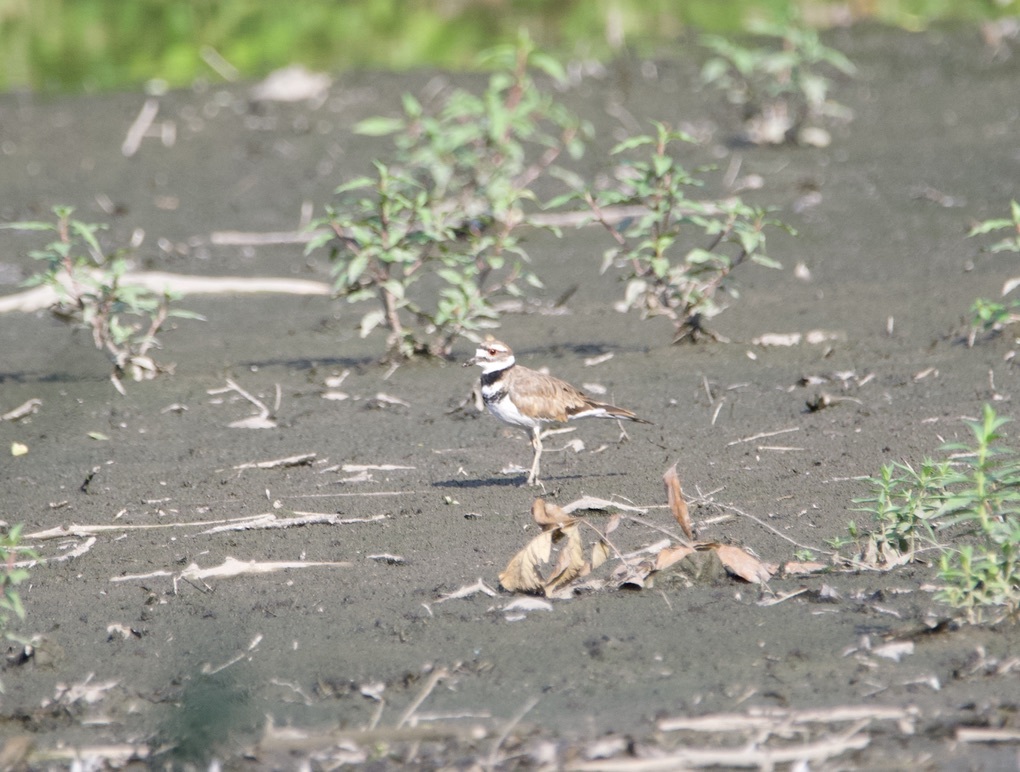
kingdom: Animalia
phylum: Chordata
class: Aves
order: Charadriiformes
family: Charadriidae
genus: Charadrius
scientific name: Charadrius vociferus
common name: Killdeer
